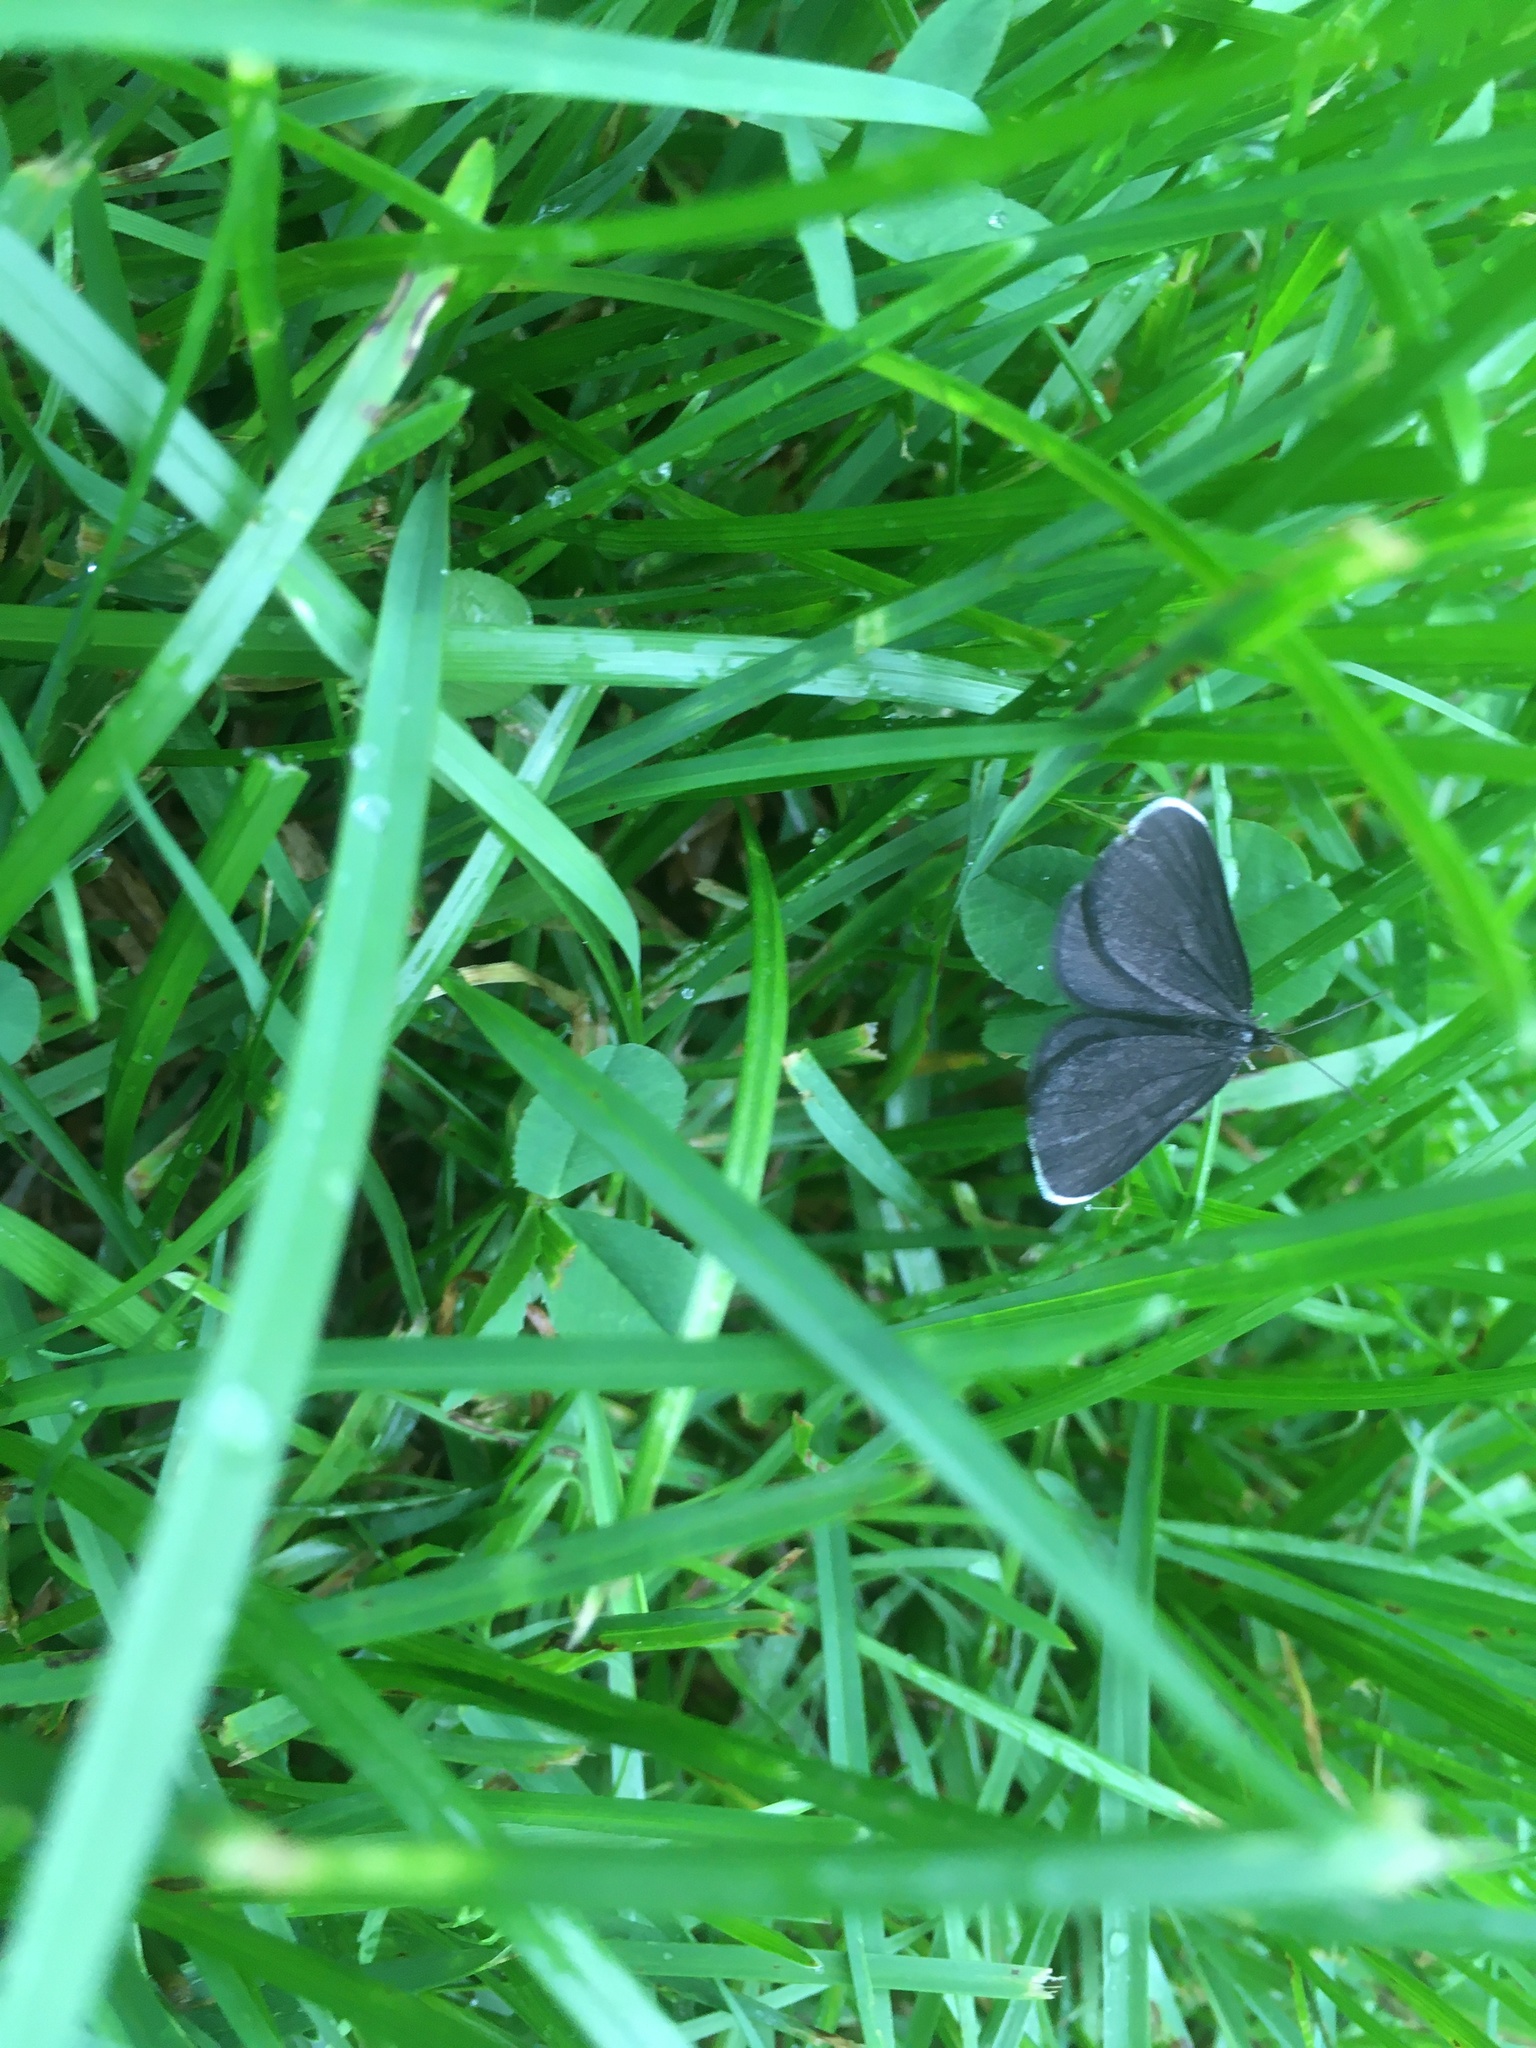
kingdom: Animalia
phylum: Arthropoda
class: Insecta
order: Lepidoptera
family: Geometridae
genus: Odezia
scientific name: Odezia atrata
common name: Chimney sweeper
